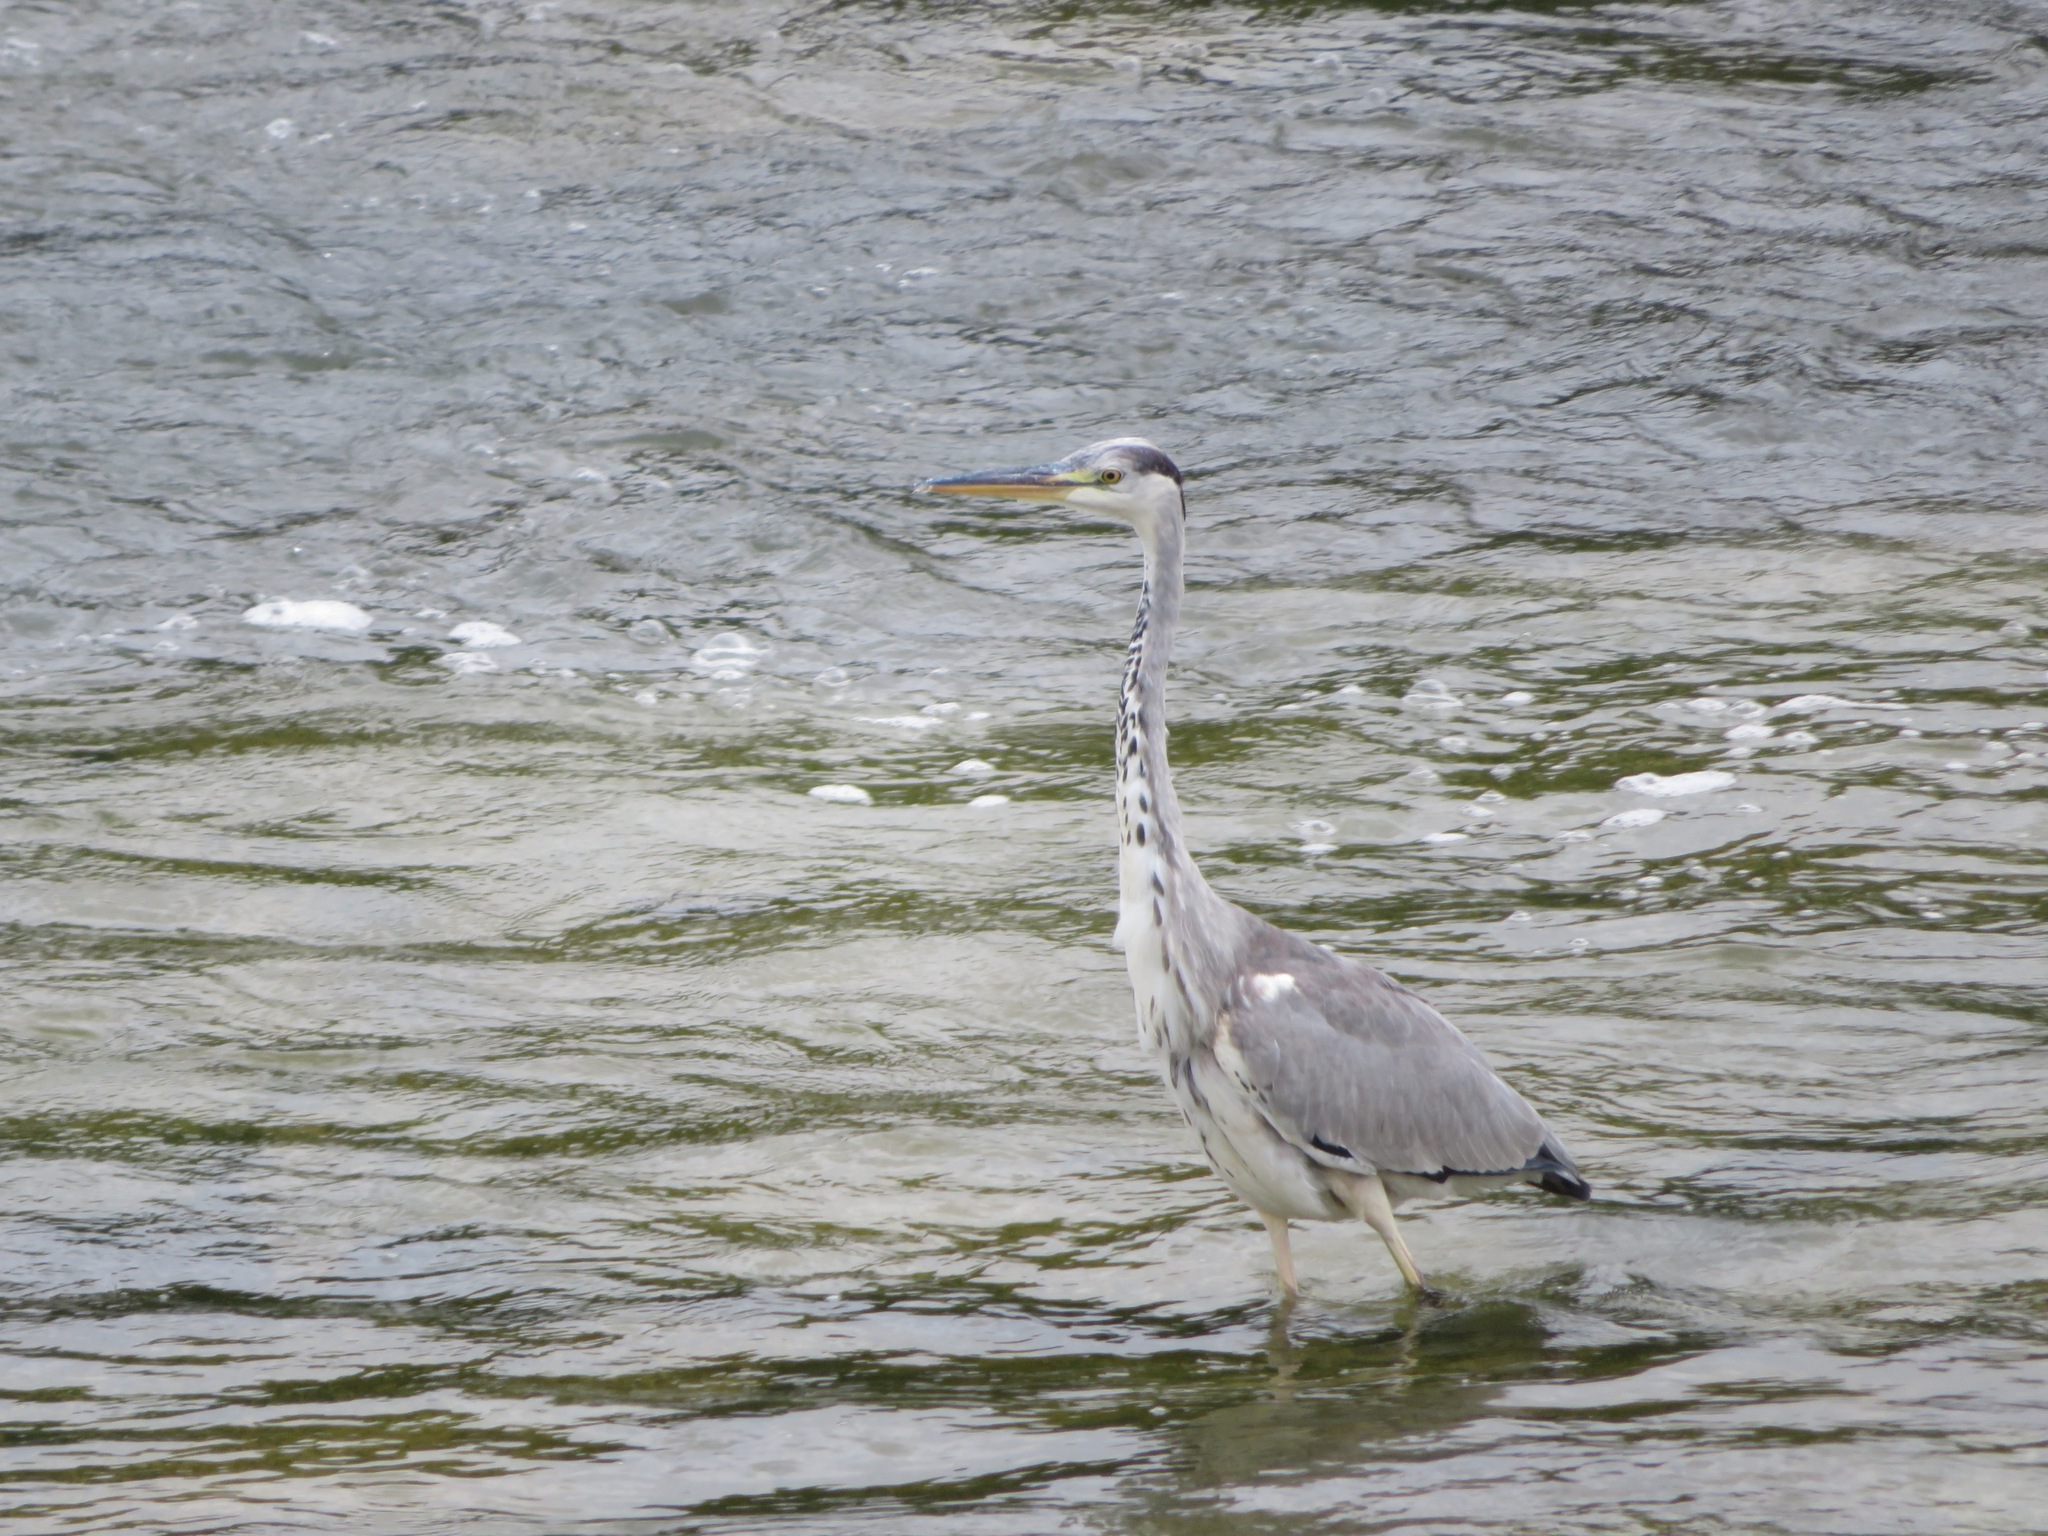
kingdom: Animalia
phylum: Chordata
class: Aves
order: Pelecaniformes
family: Ardeidae
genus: Ardea
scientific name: Ardea cinerea
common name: Grey heron
